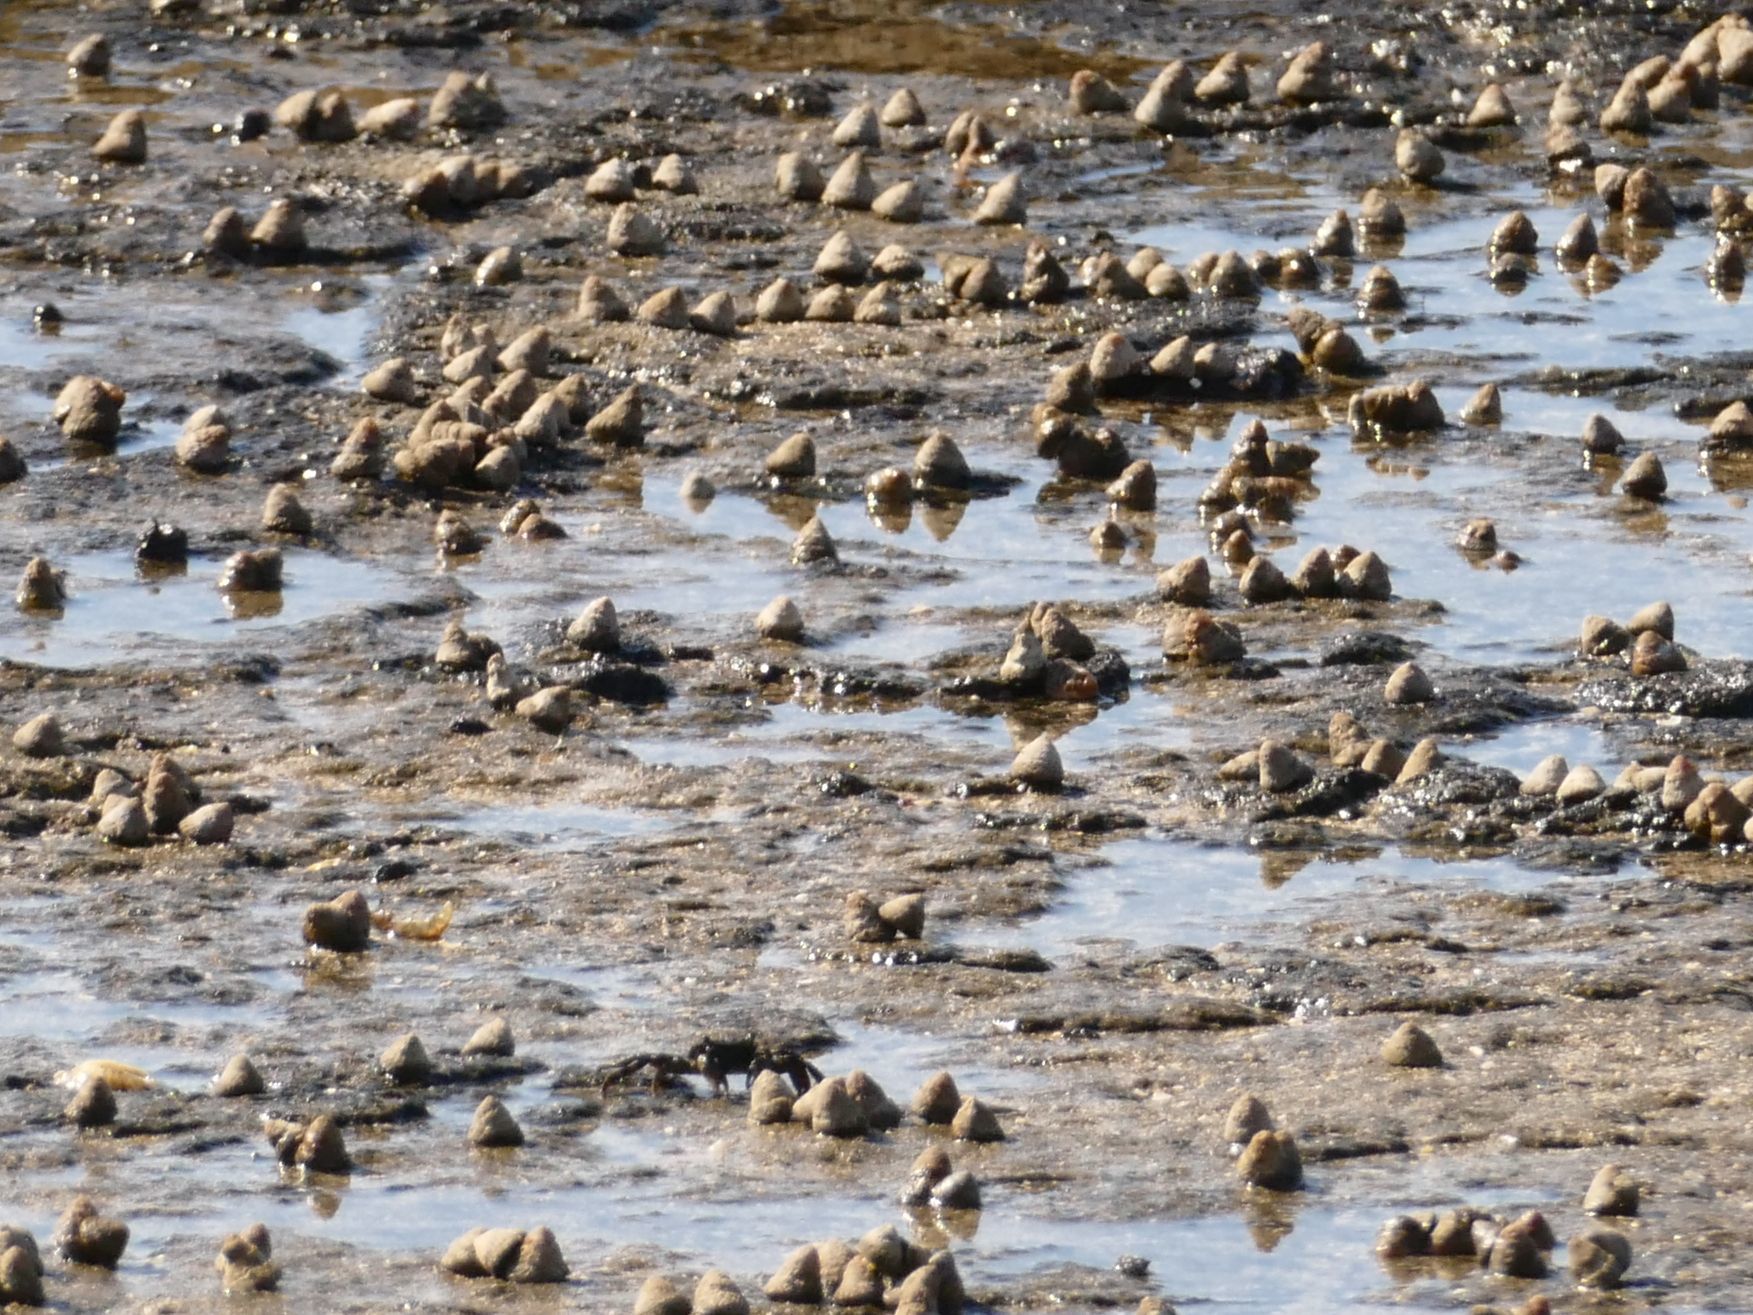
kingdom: Animalia
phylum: Mollusca
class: Gastropoda
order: Littorinimorpha
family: Littorinidae
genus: Bembicium
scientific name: Bembicium nanum
